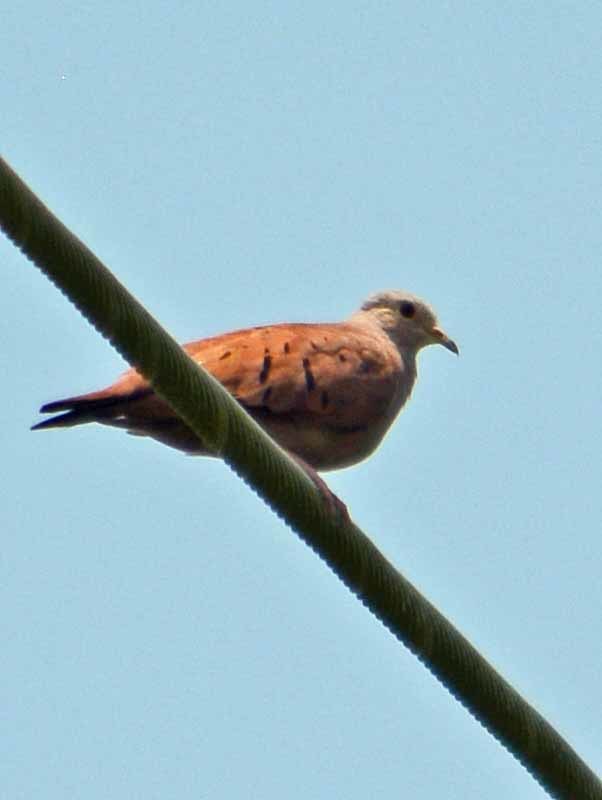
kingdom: Animalia
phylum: Chordata
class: Aves
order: Columbiformes
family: Columbidae
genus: Columbina
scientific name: Columbina talpacoti
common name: Ruddy ground dove
